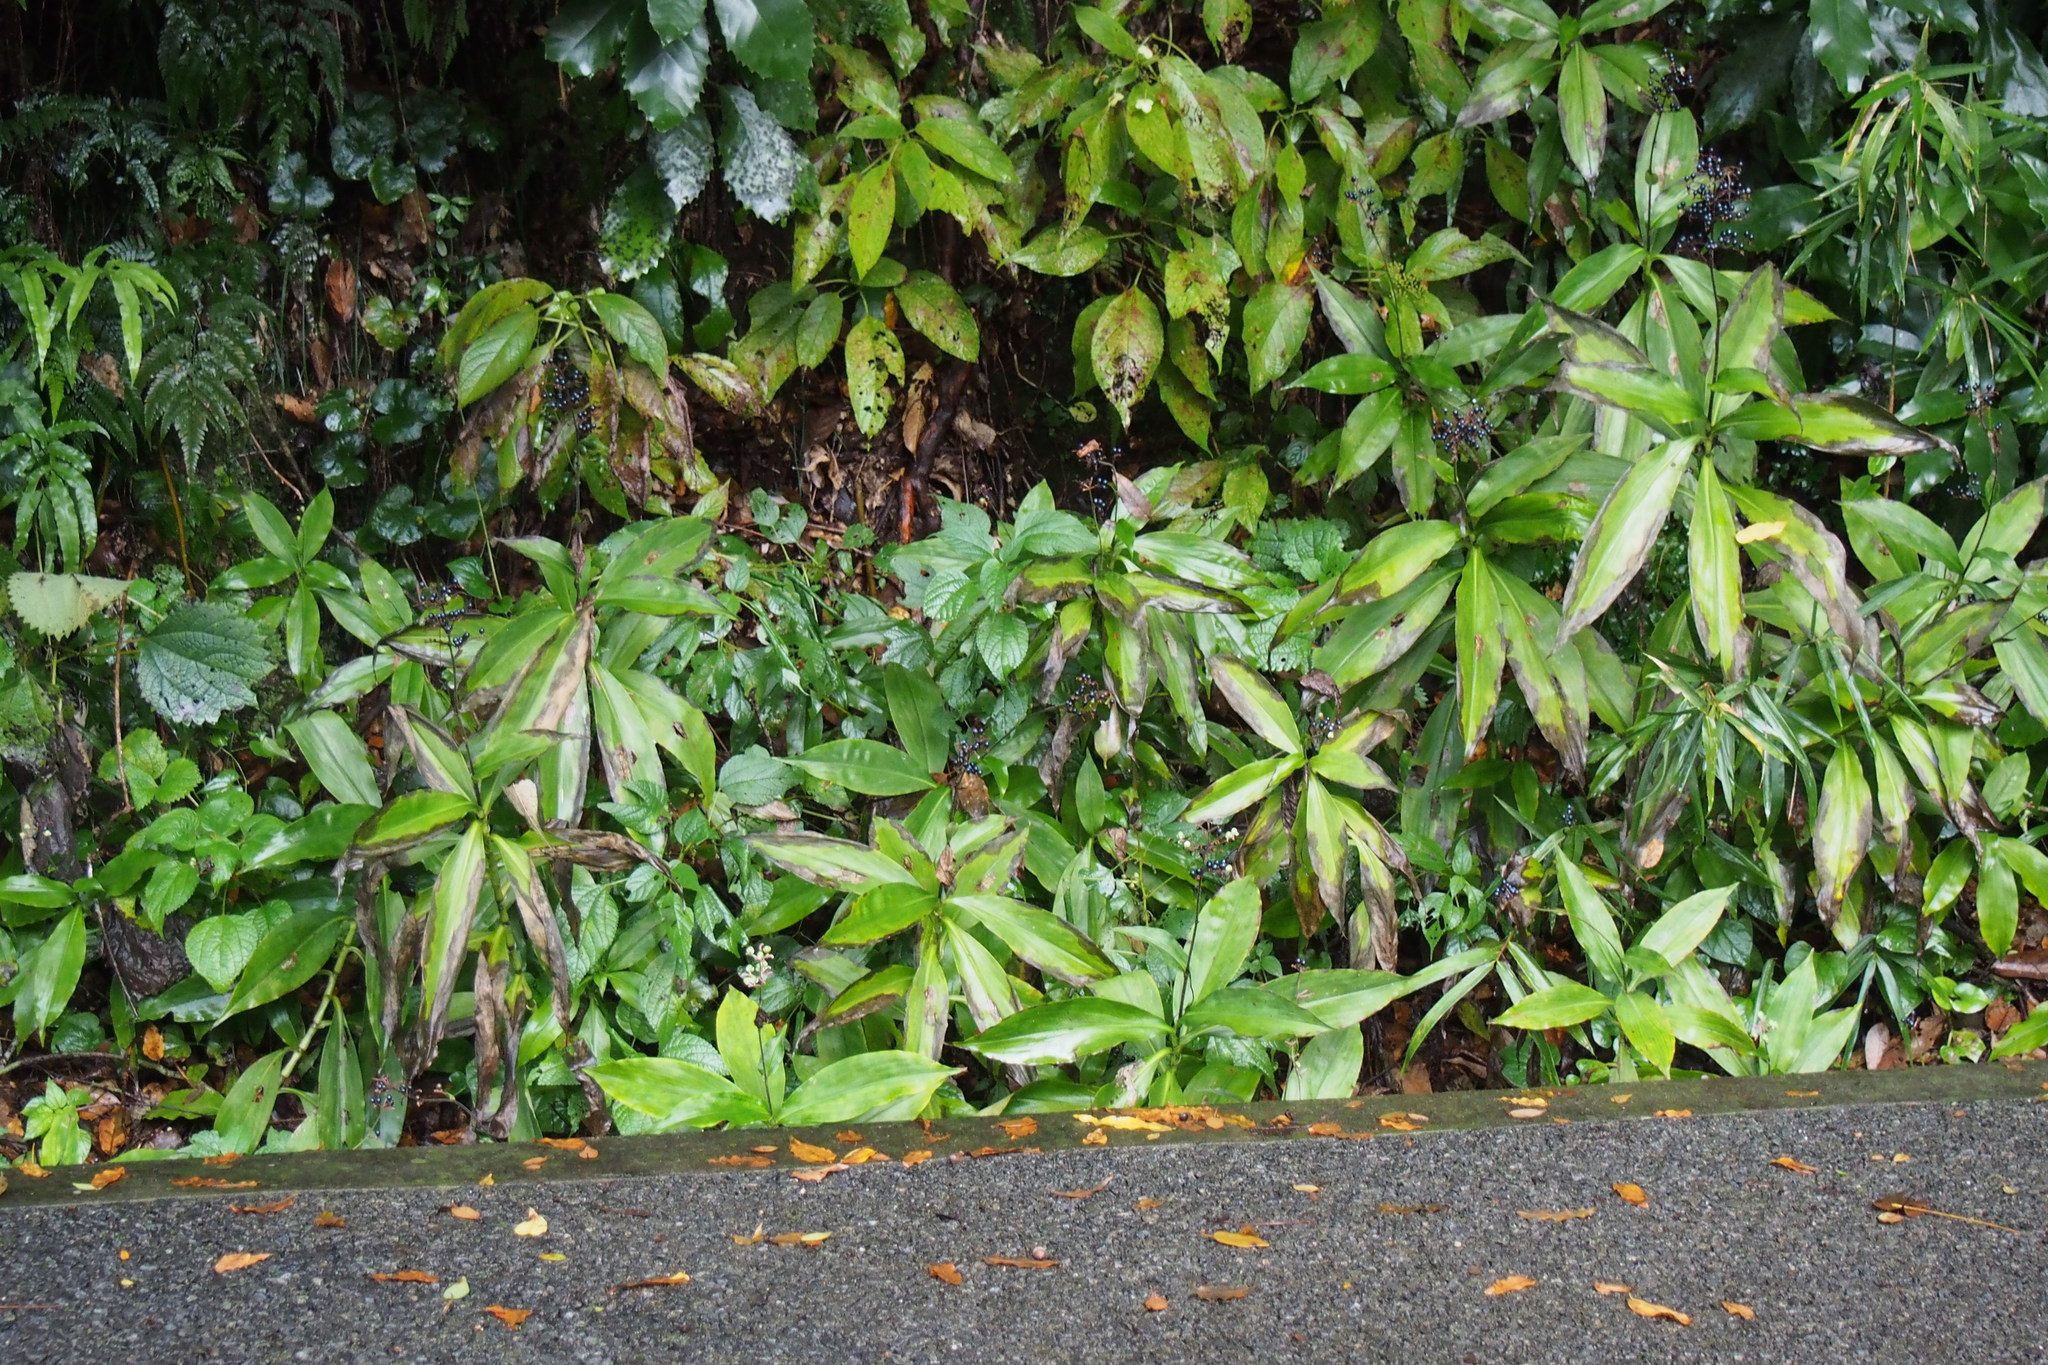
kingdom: Plantae
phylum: Tracheophyta
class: Liliopsida
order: Commelinales
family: Commelinaceae
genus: Pollia
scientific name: Pollia japonica
